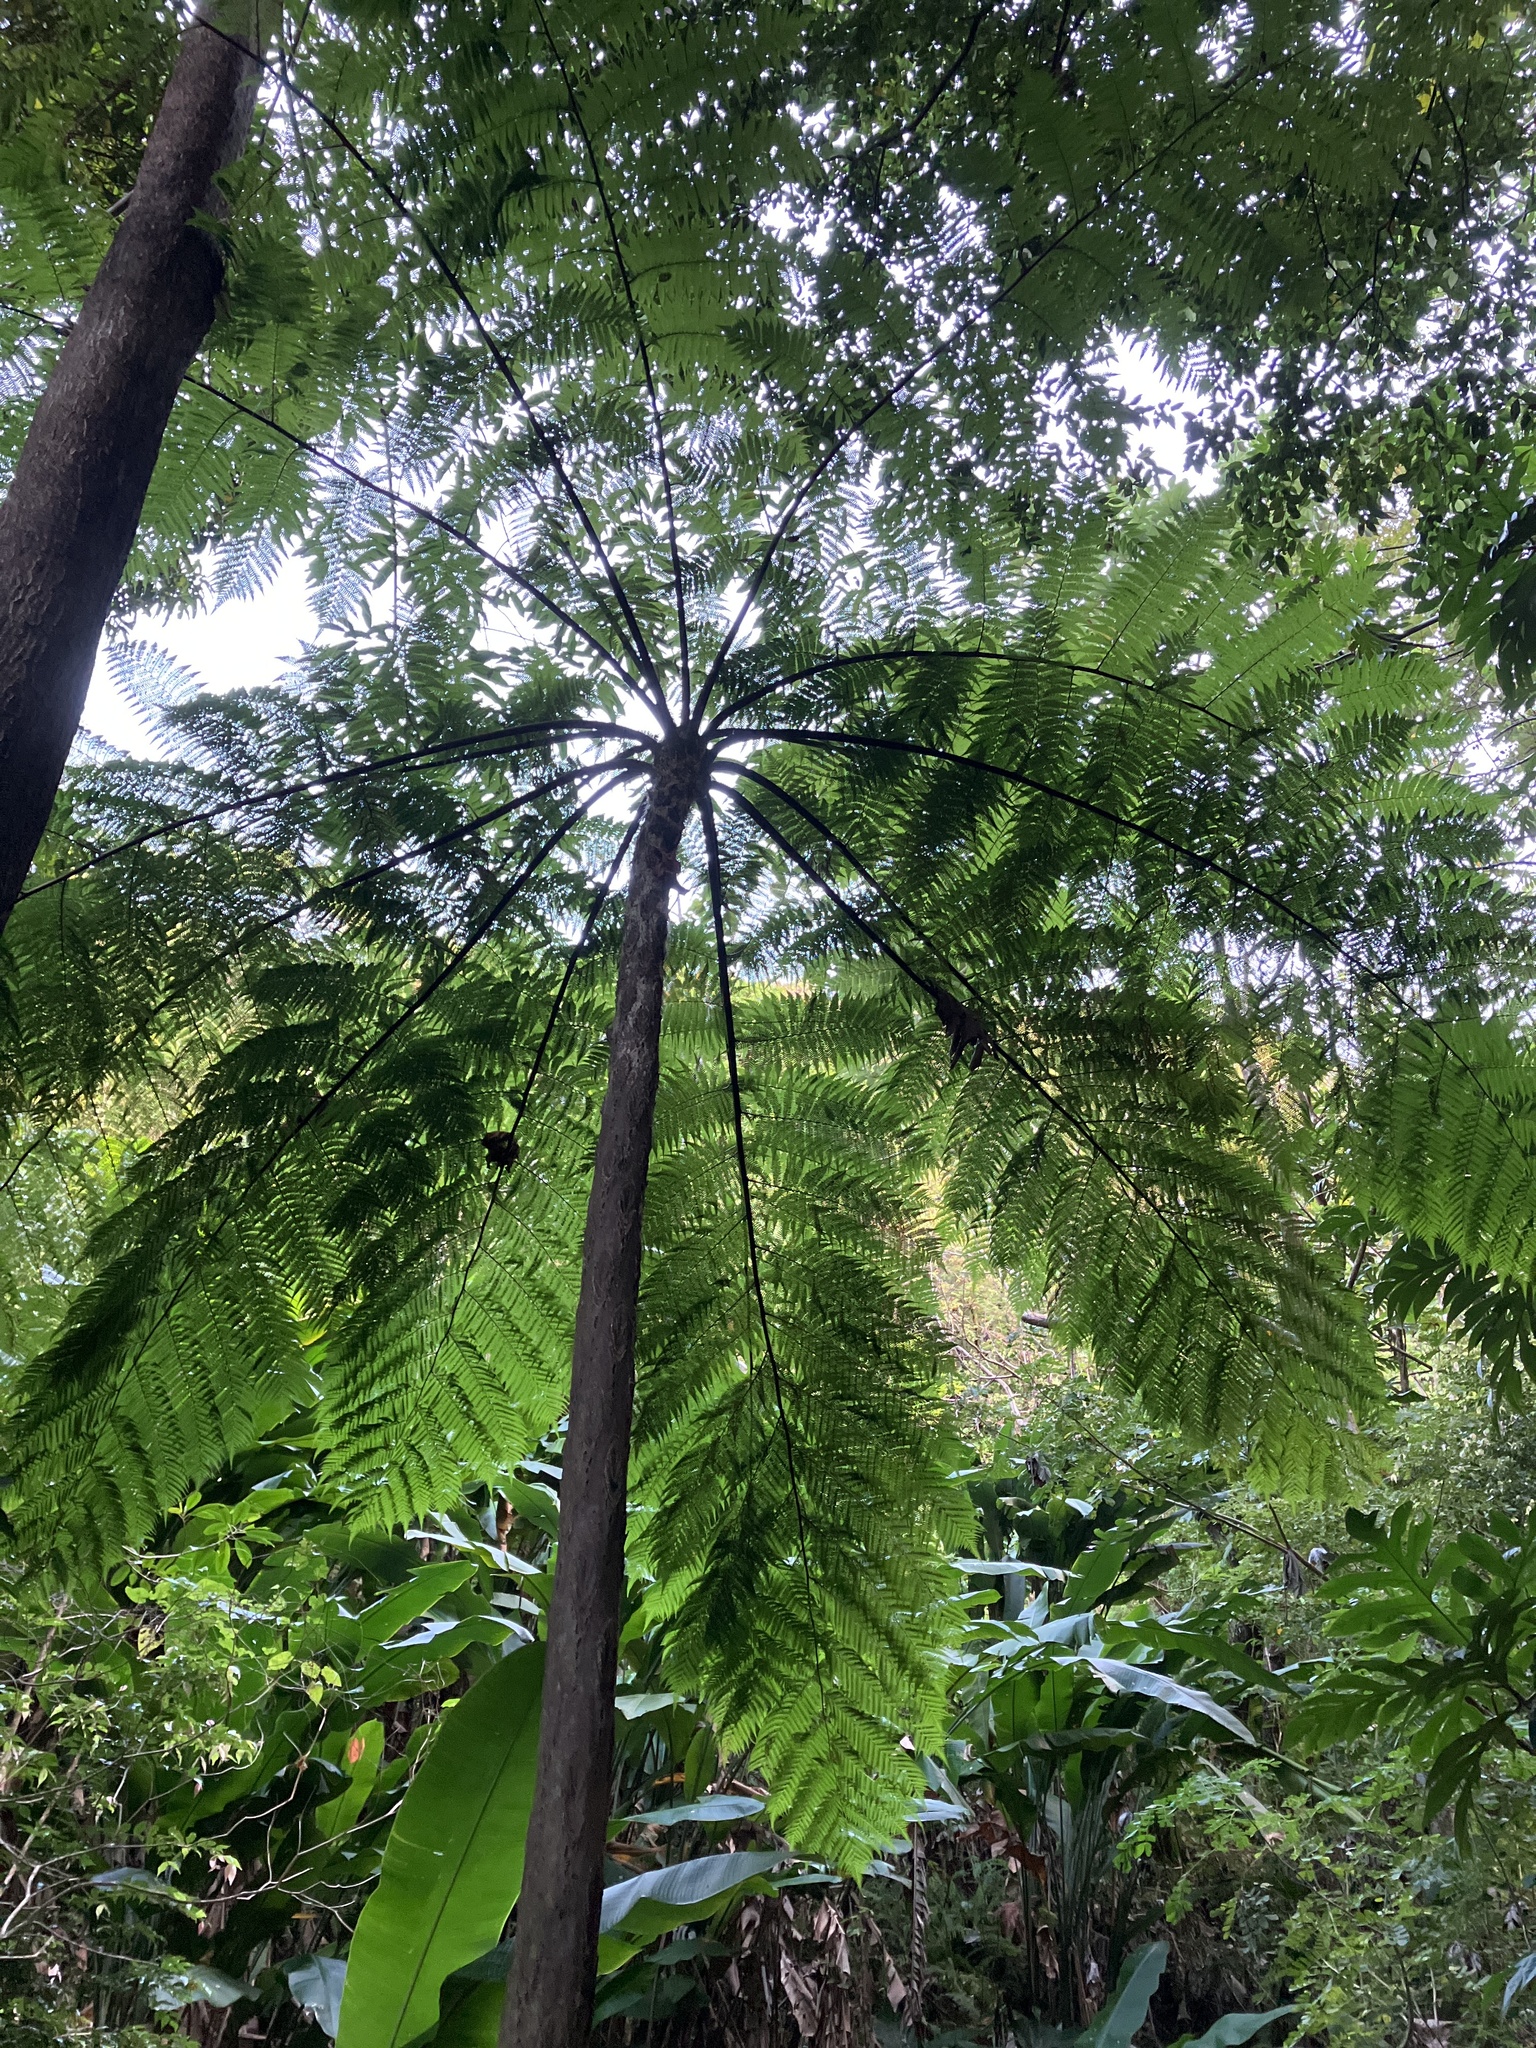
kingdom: Plantae
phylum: Tracheophyta
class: Polypodiopsida
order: Cyatheales
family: Cyatheaceae
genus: Cyathea
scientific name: Cyathea arborea
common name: West indian treefern
